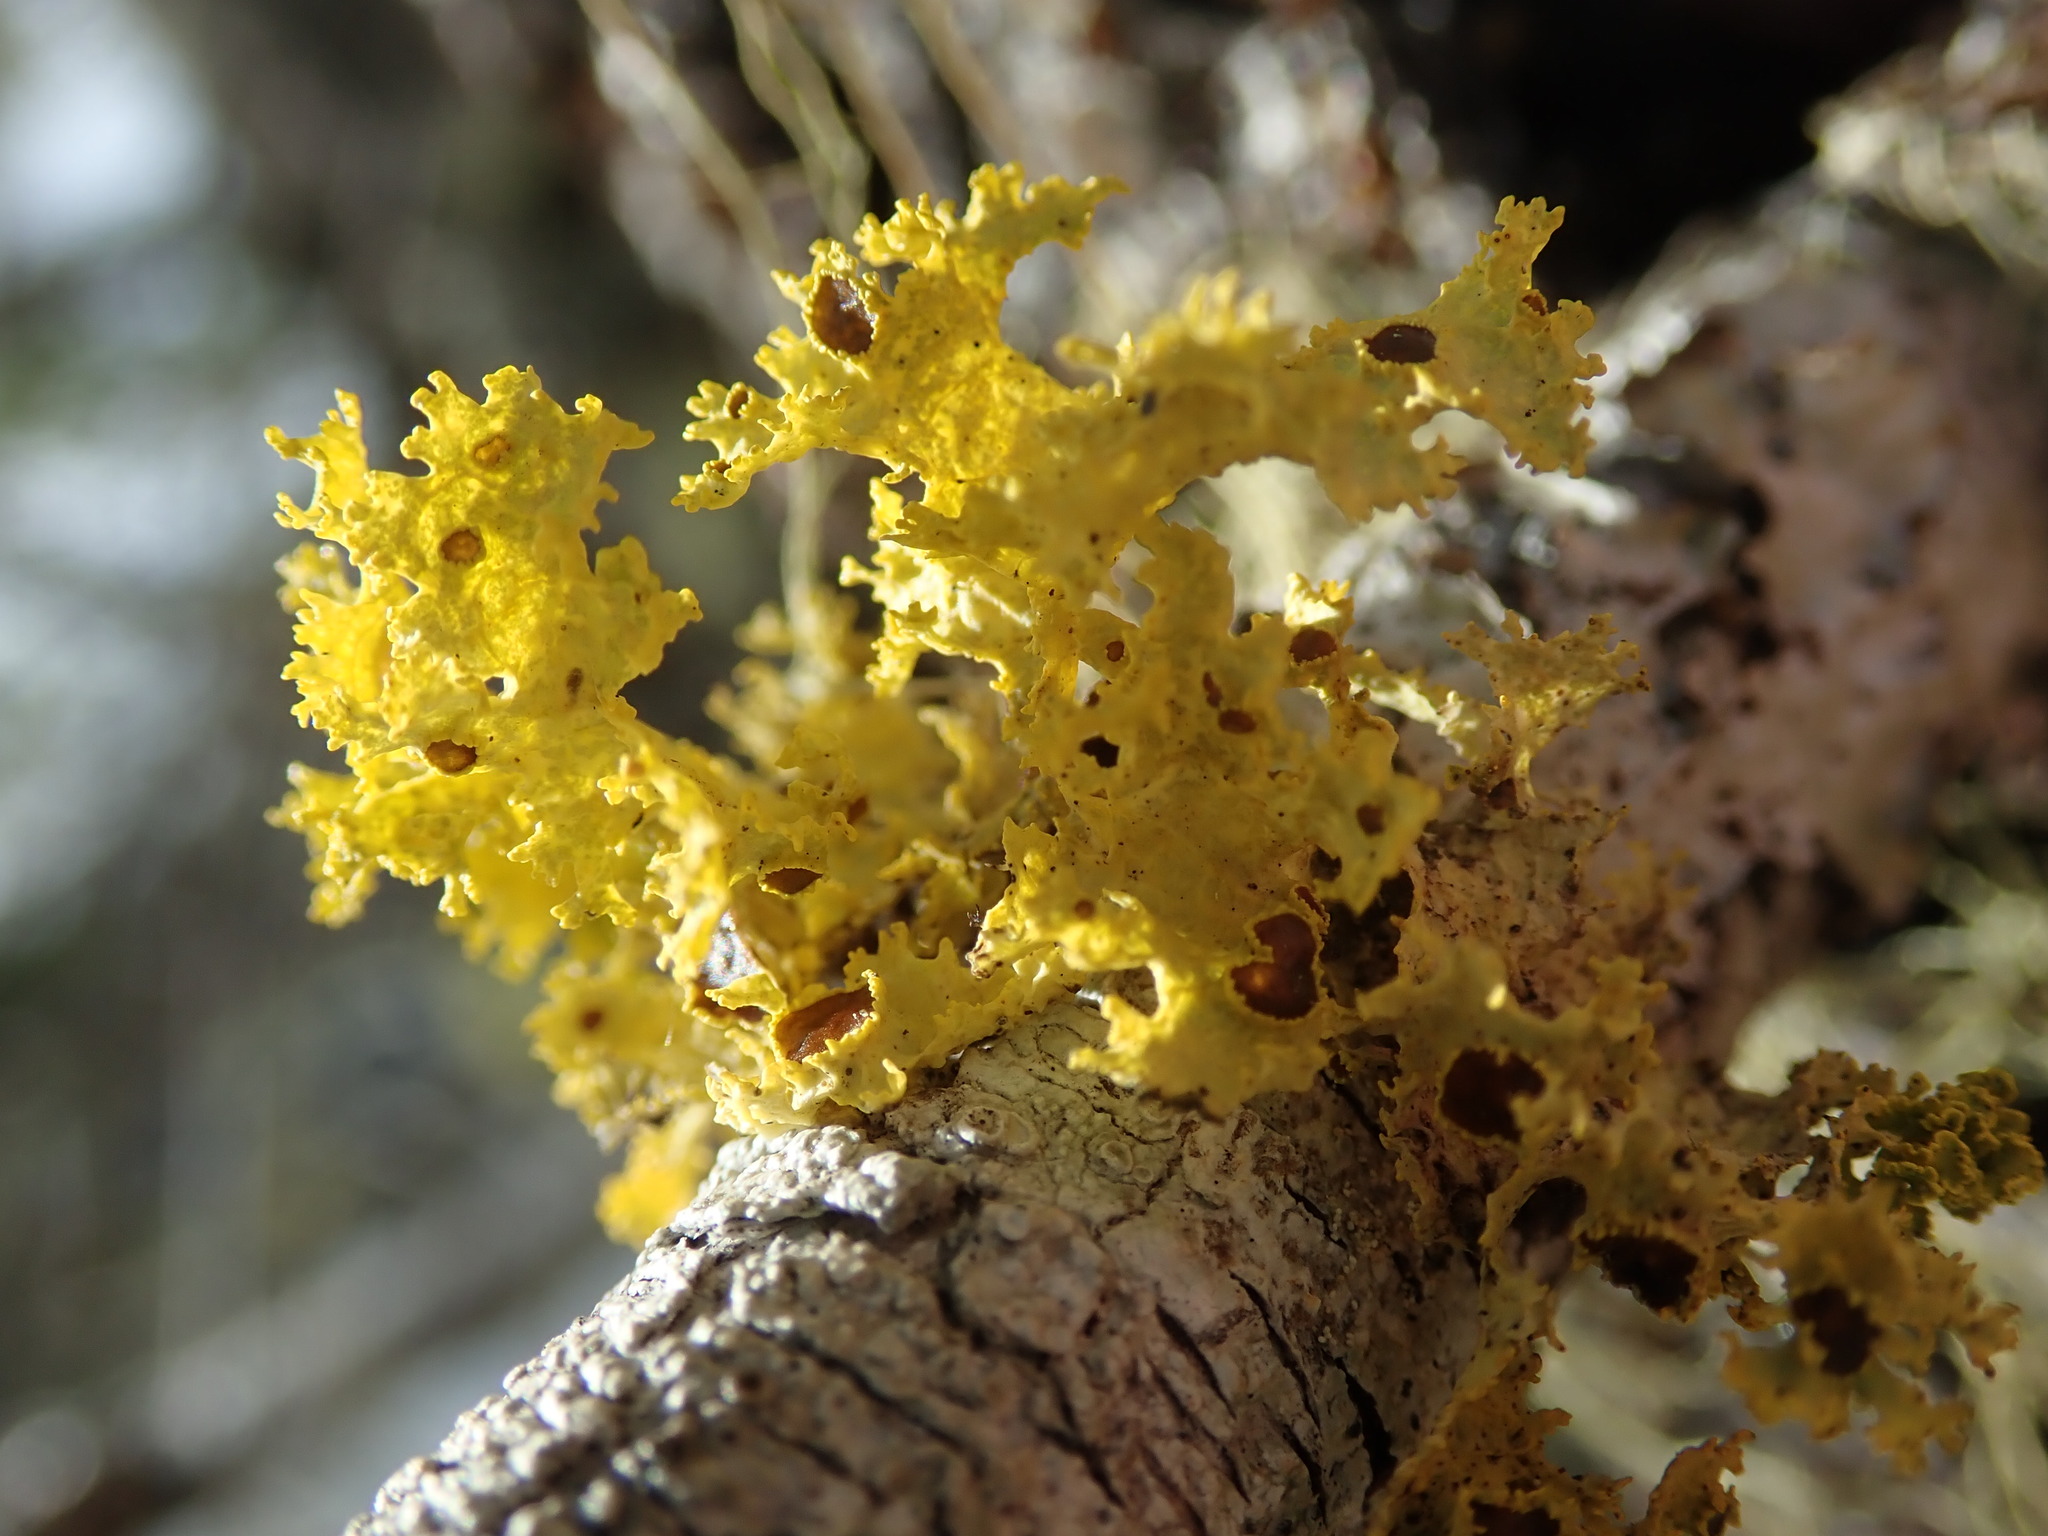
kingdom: Fungi
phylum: Ascomycota
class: Lecanoromycetes
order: Lecanorales
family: Parmeliaceae
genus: Vulpicida
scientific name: Vulpicida canadensis
